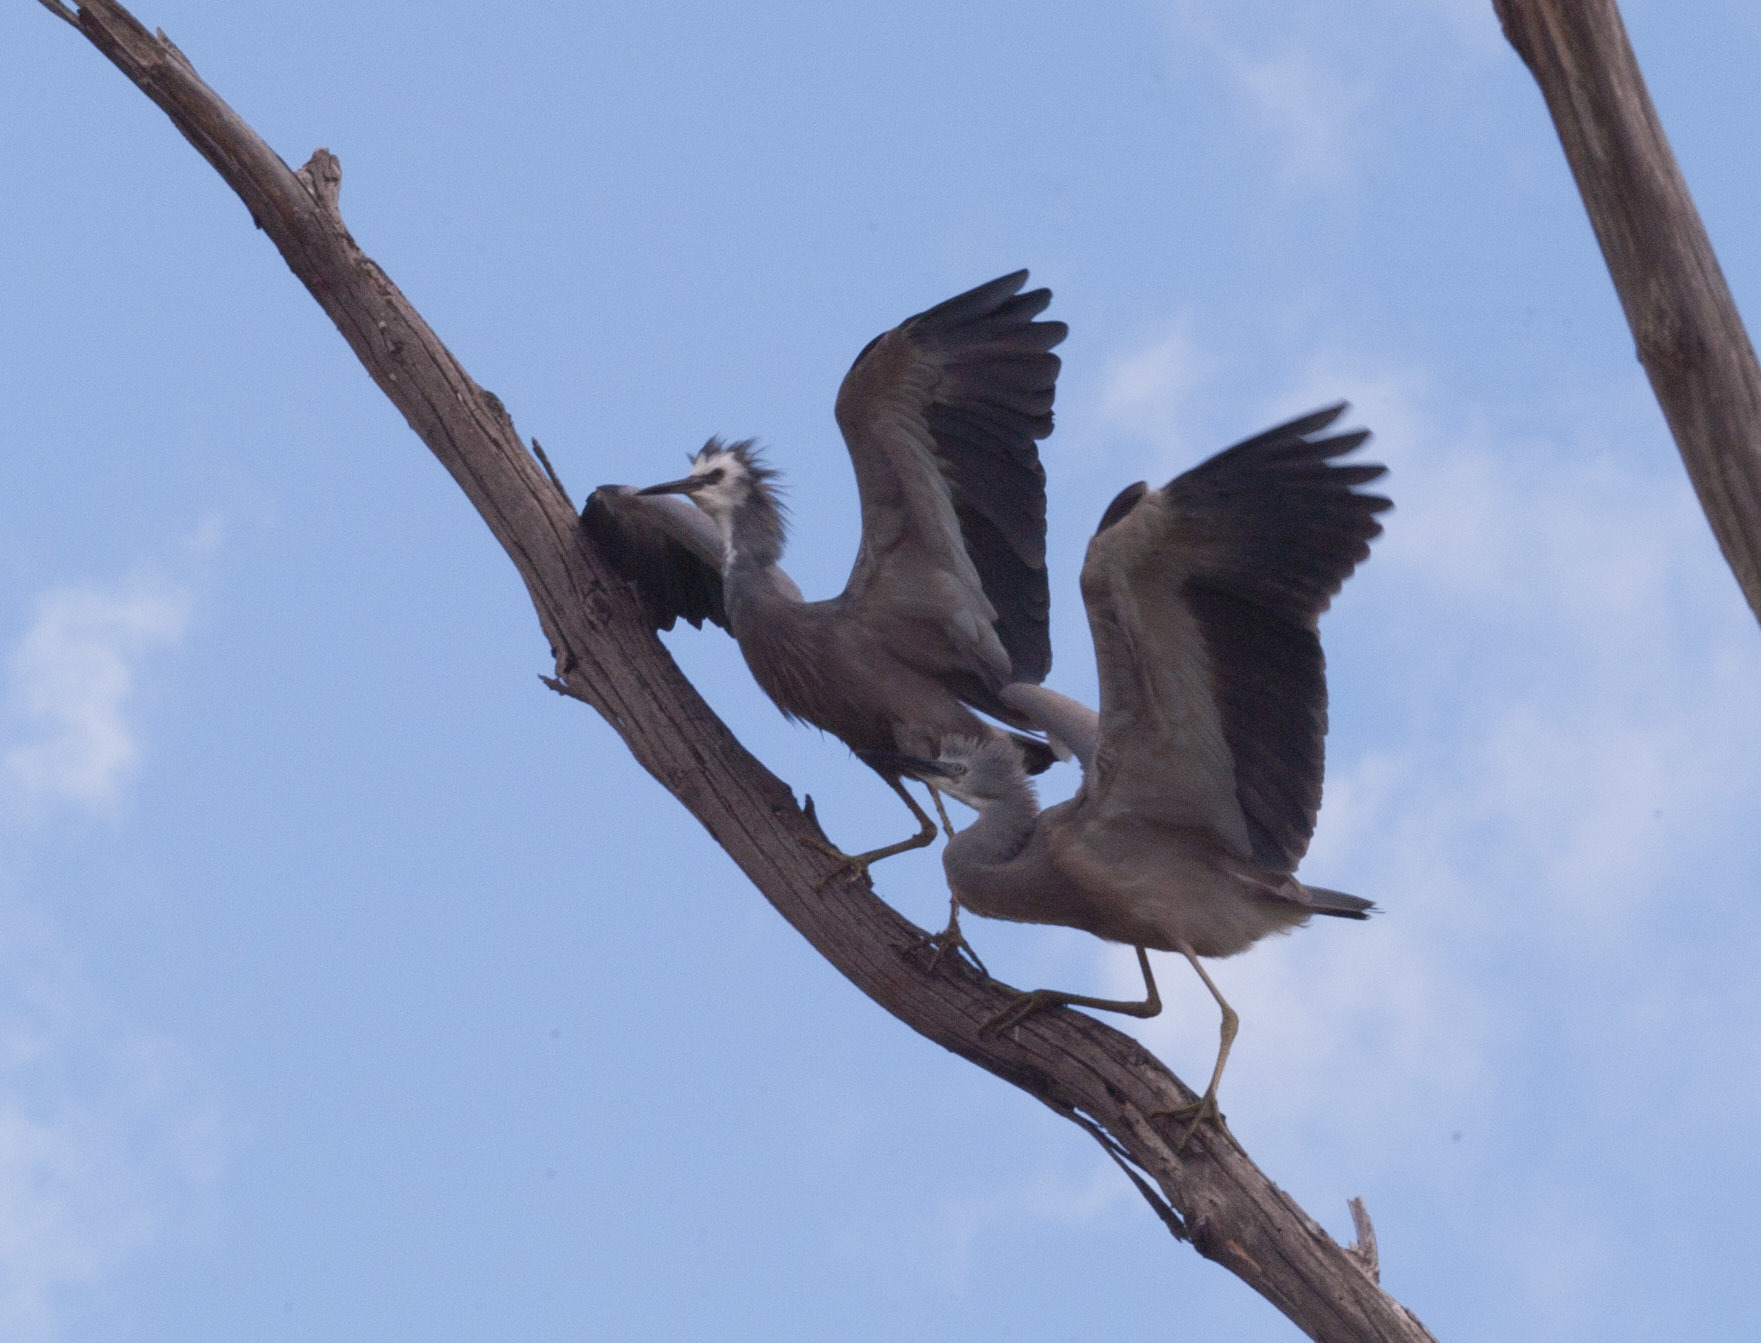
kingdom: Animalia
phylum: Chordata
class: Aves
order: Pelecaniformes
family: Ardeidae
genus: Egretta
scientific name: Egretta novaehollandiae
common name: White-faced heron
